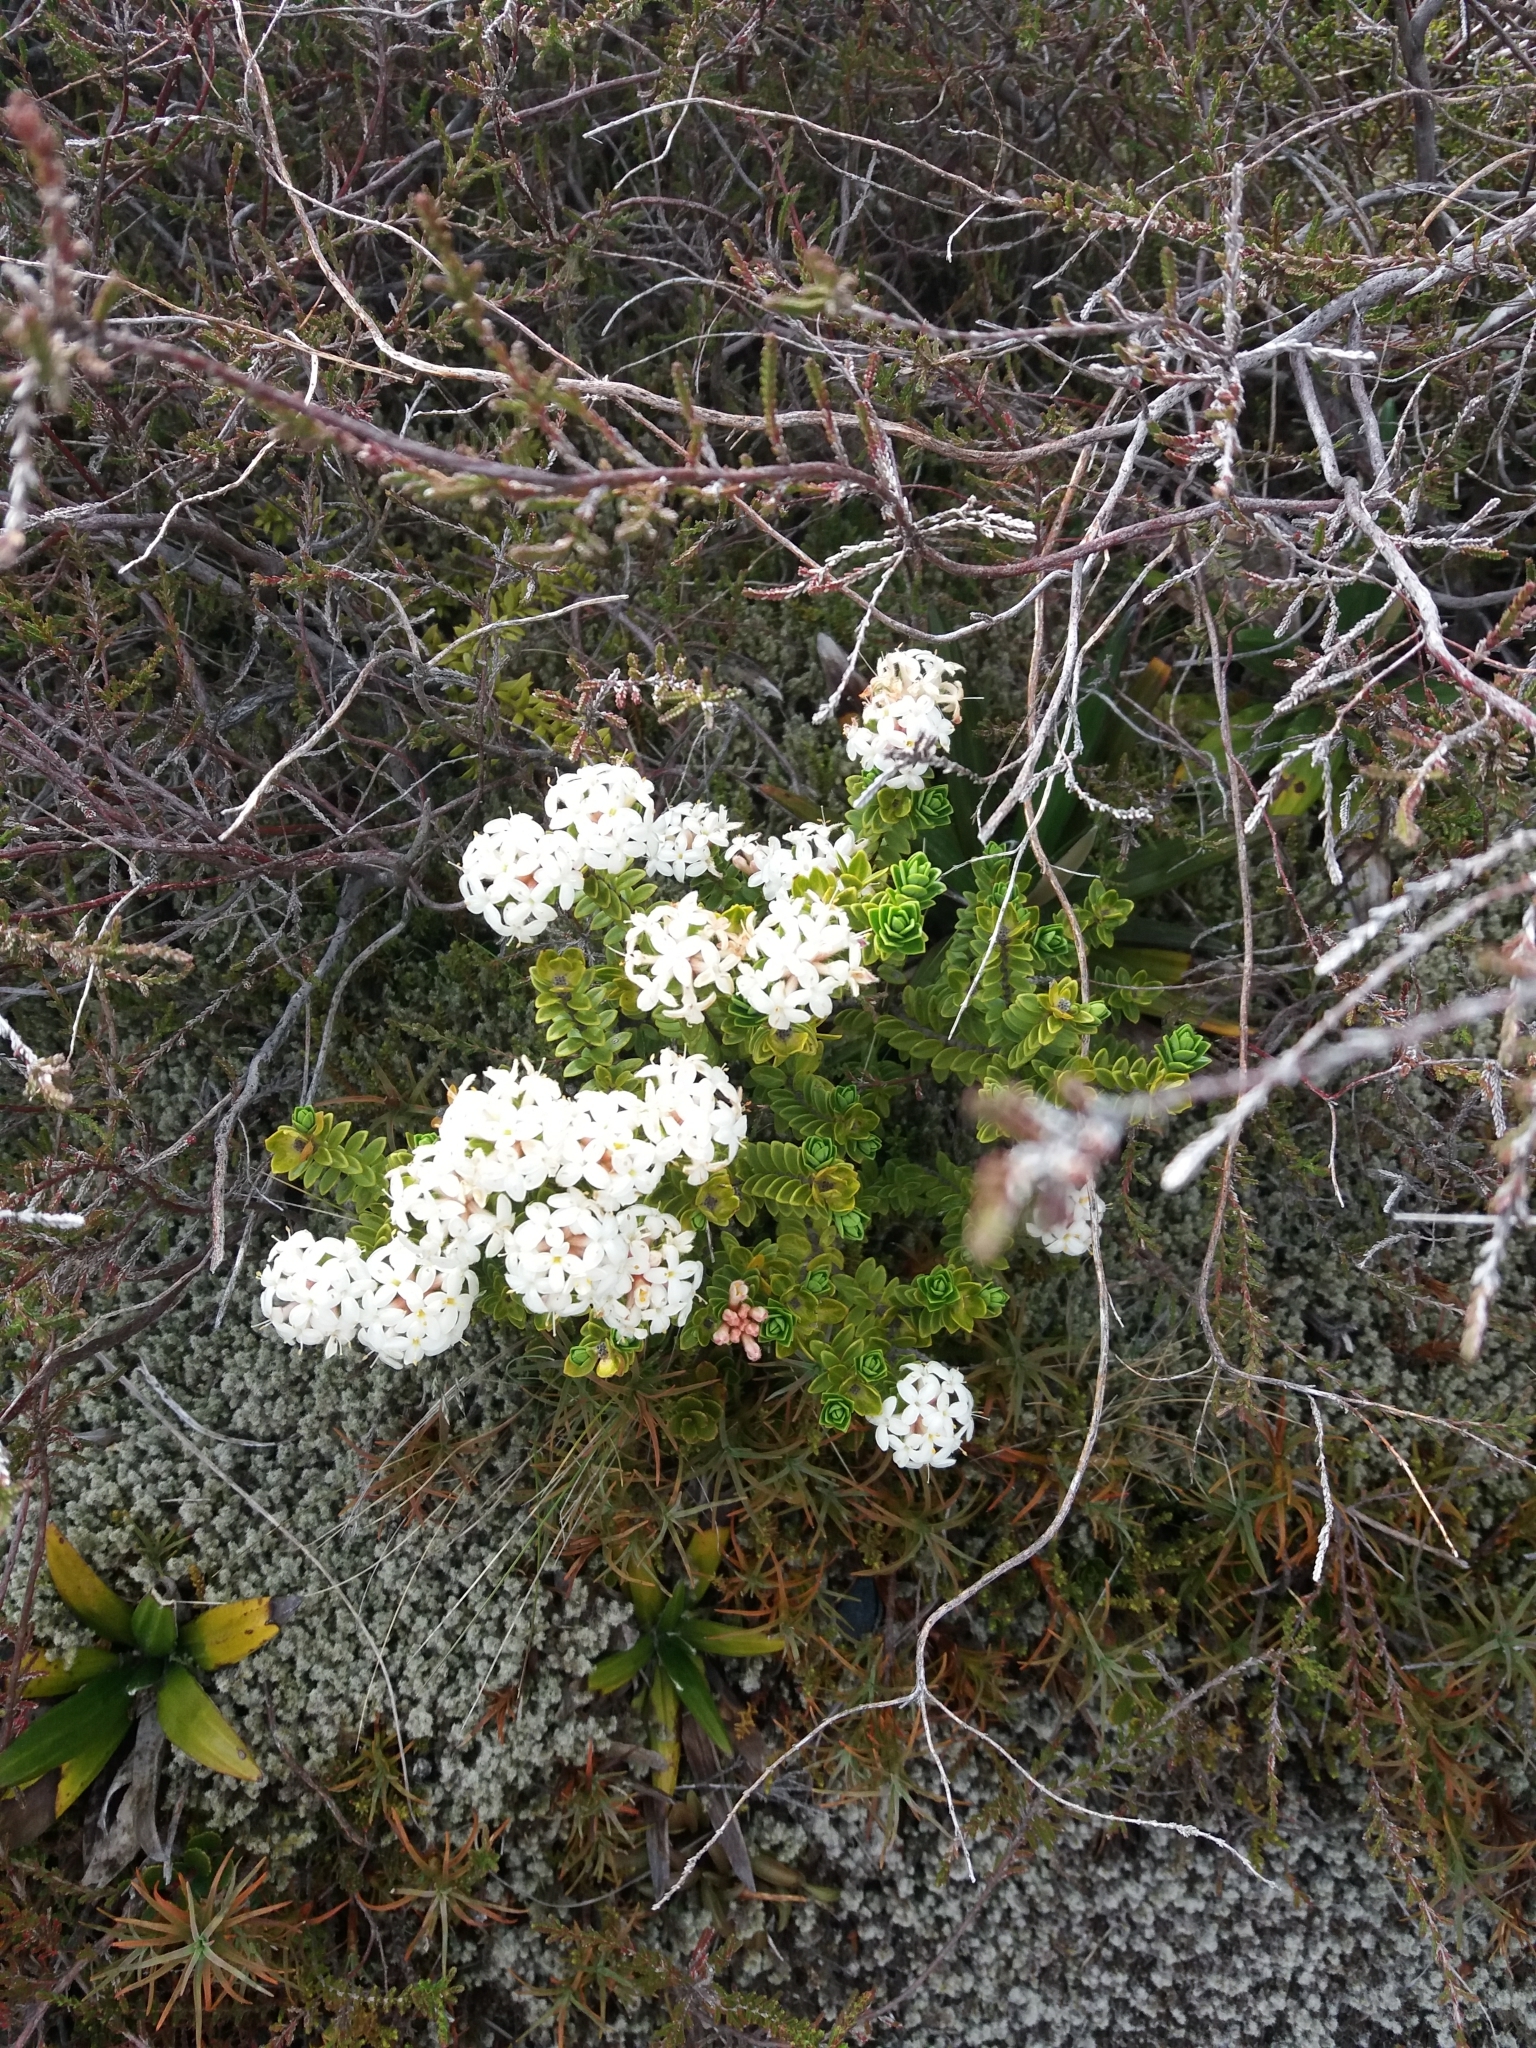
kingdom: Plantae
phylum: Tracheophyta
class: Magnoliopsida
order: Malvales
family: Thymelaeaceae
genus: Pimelea
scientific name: Pimelea buxifolia
